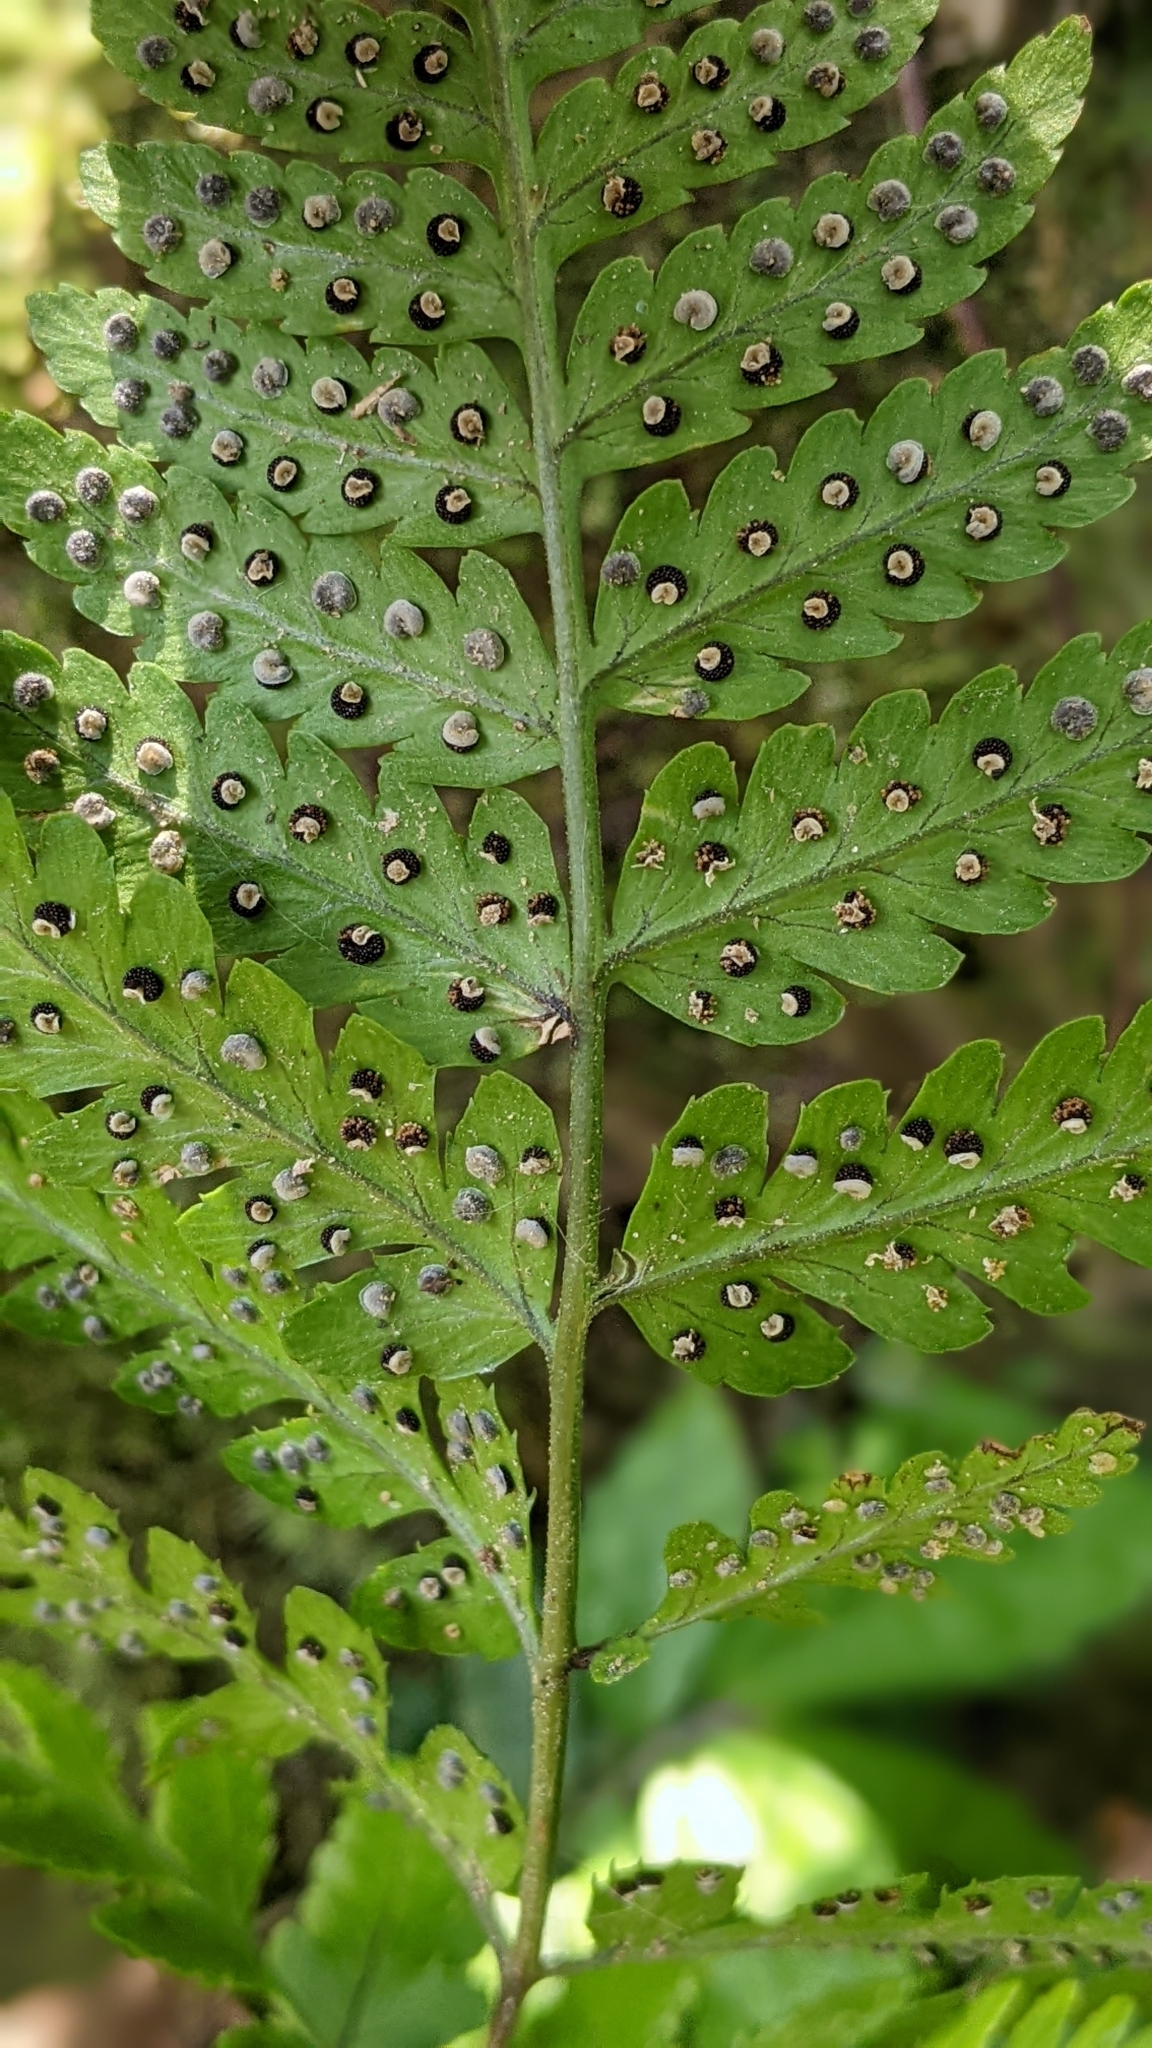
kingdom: Plantae
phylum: Tracheophyta
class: Polypodiopsida
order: Polypodiales
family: Dryopteridaceae
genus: Dryopteris
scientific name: Dryopteris sparsa
